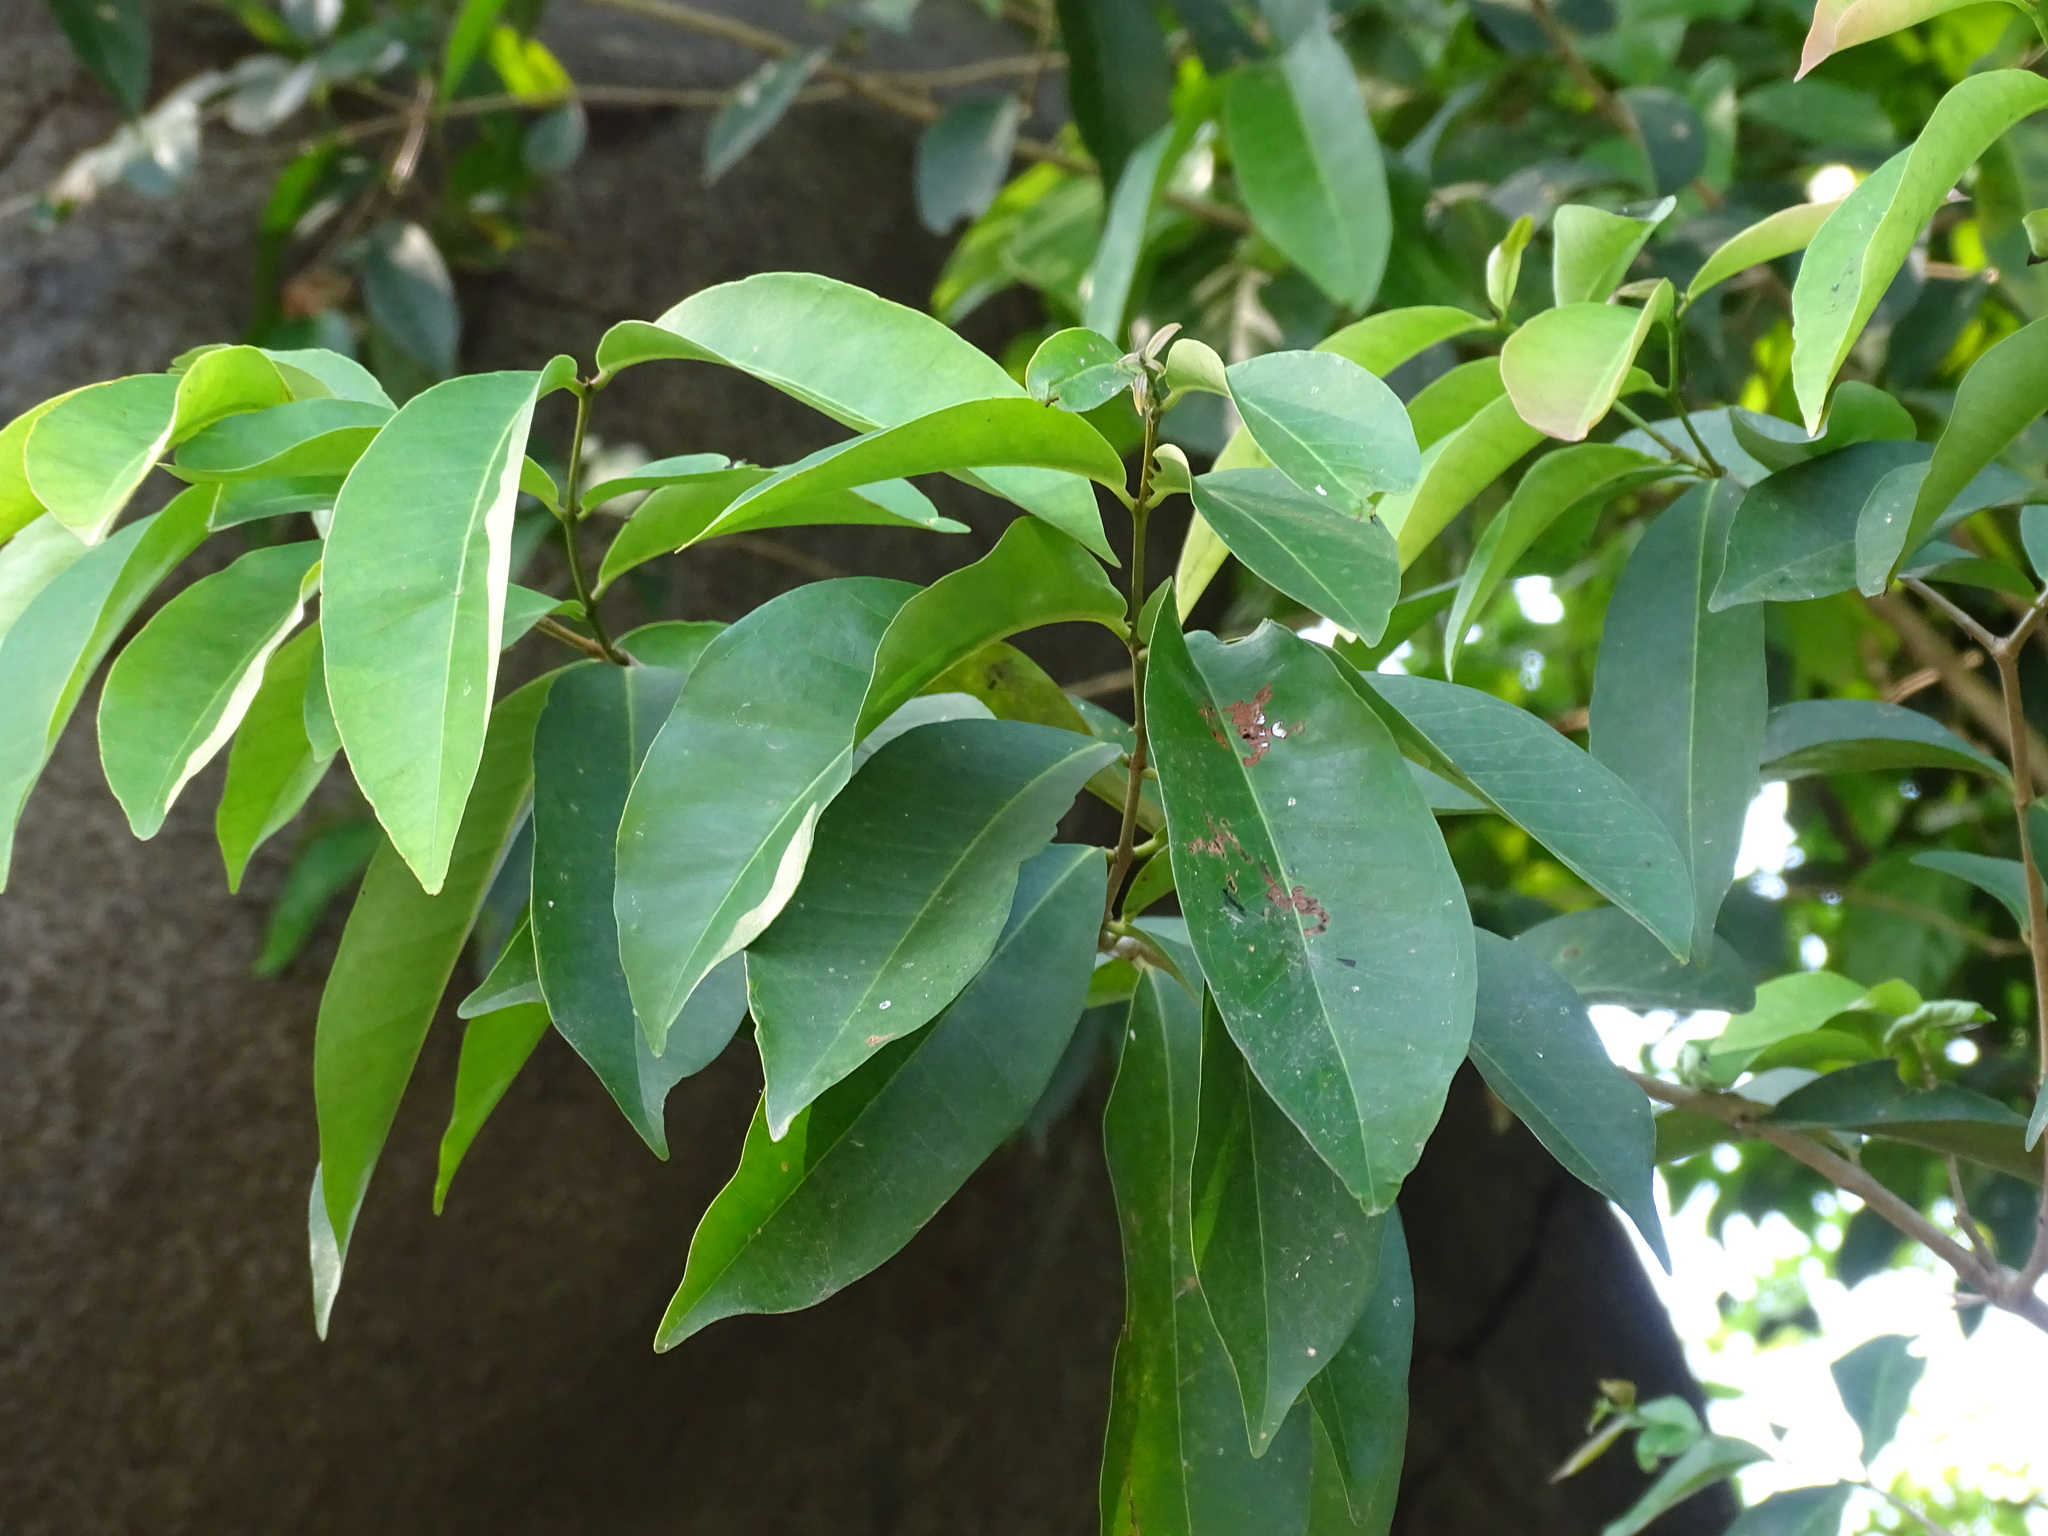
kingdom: Plantae
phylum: Tracheophyta
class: Magnoliopsida
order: Myrtales
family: Myrtaceae
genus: Eugenia
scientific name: Eugenia choapamensis
